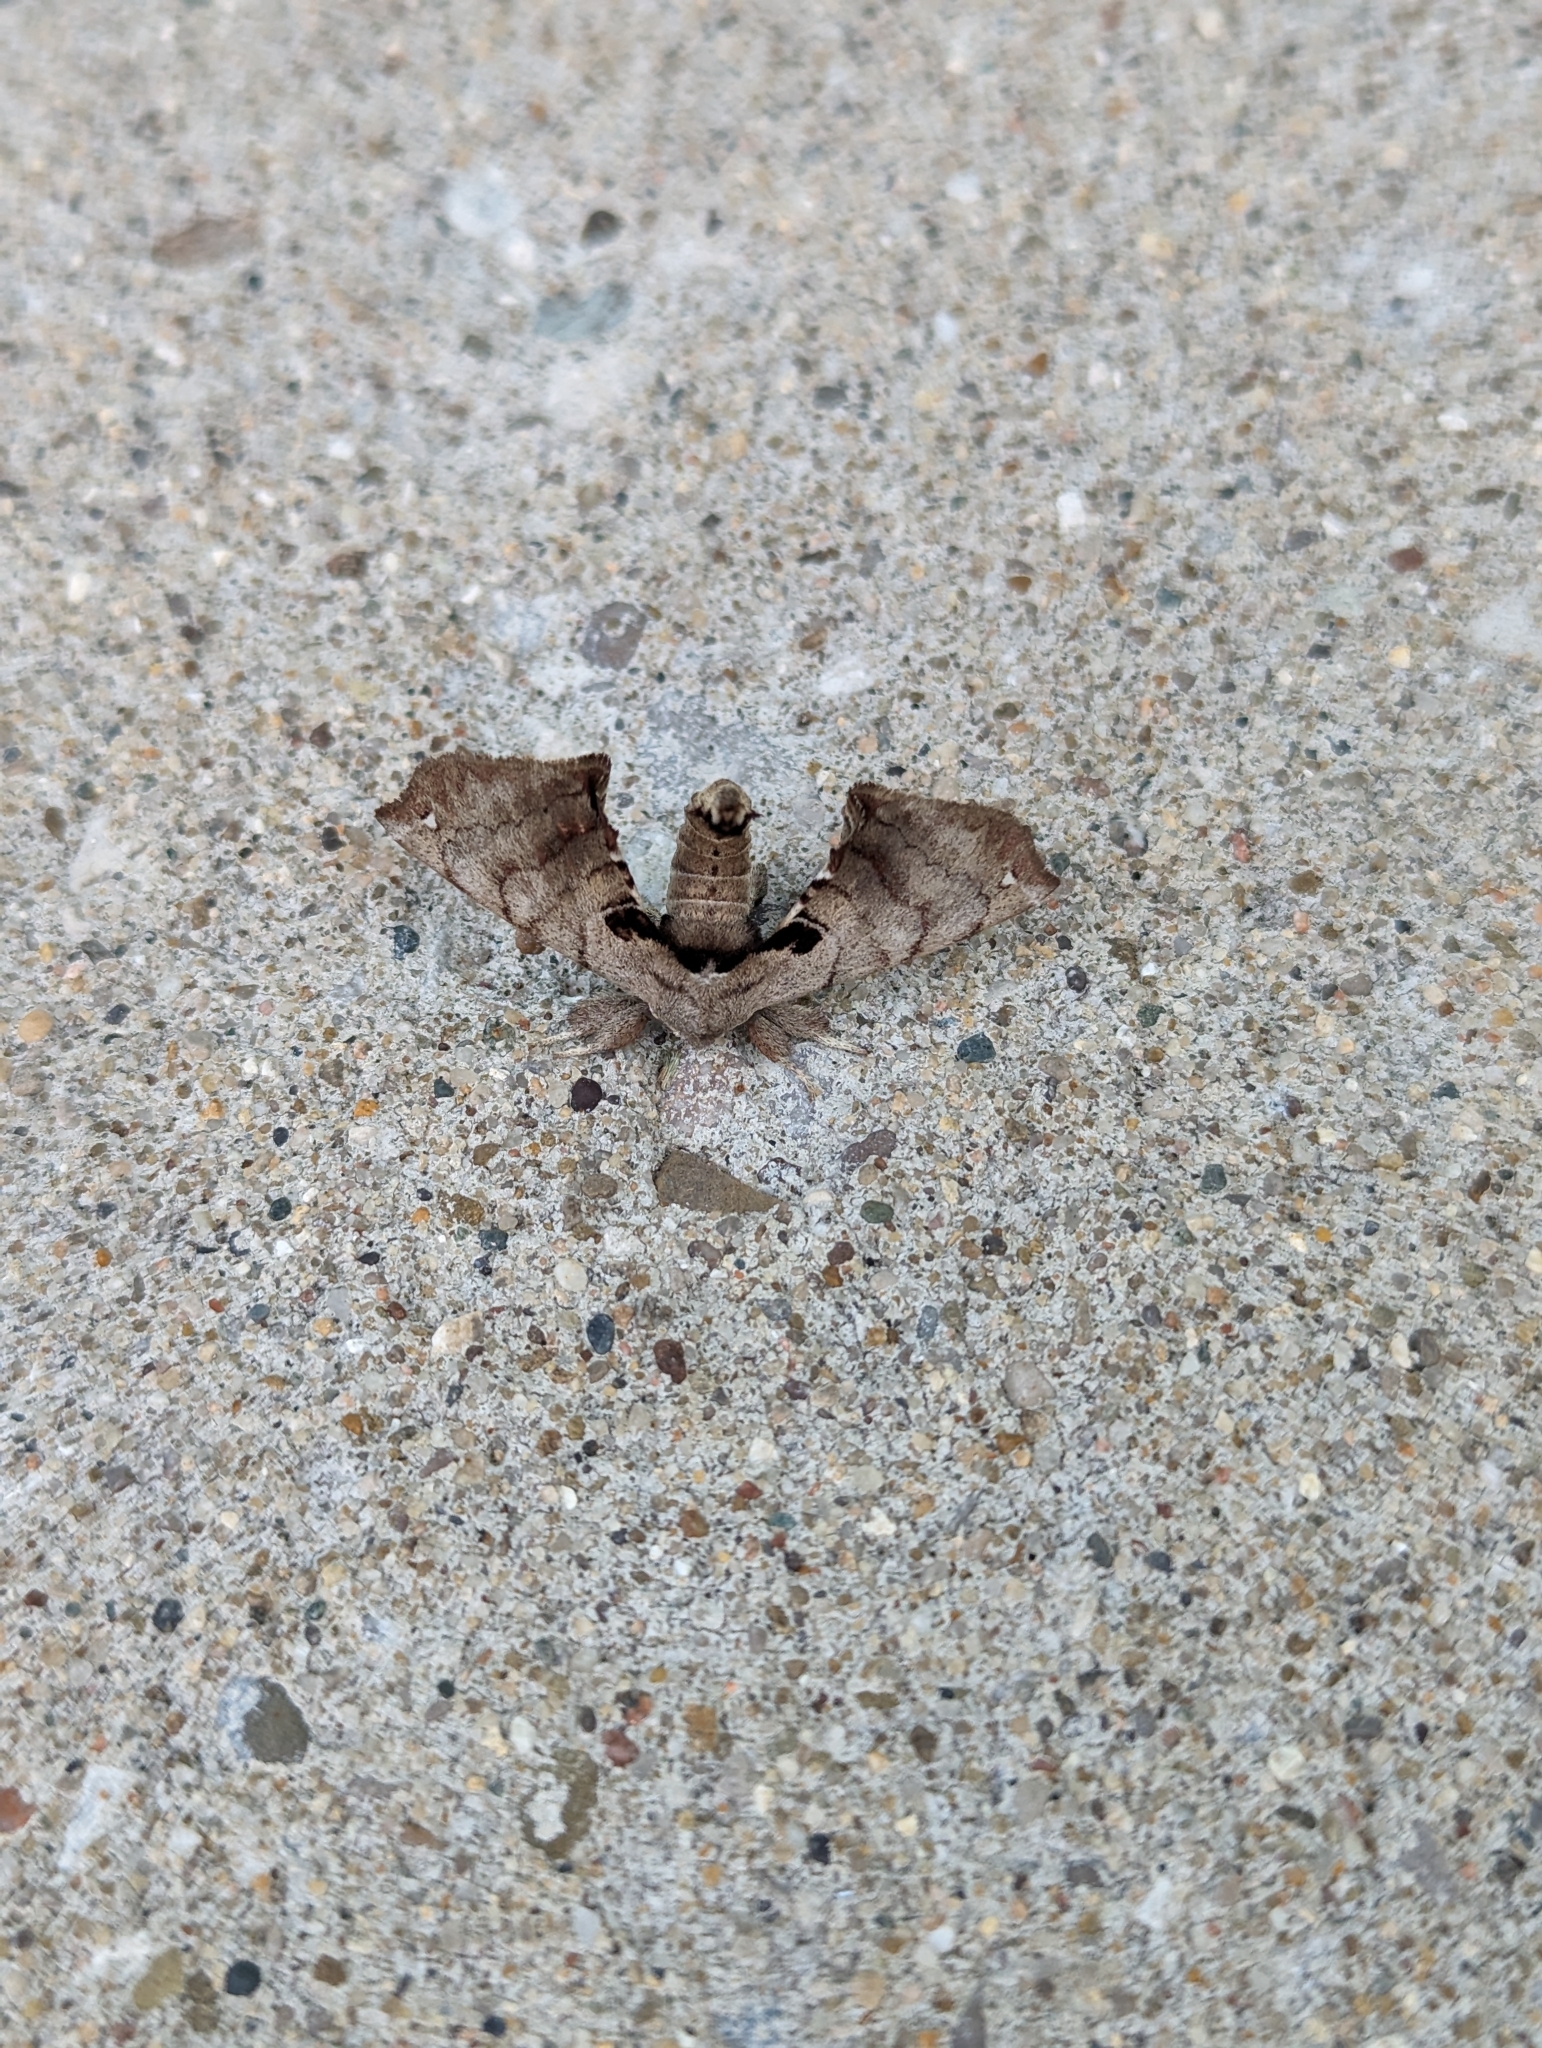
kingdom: Animalia
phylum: Arthropoda
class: Insecta
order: Lepidoptera
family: Apatelodidae
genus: Hygrochroa
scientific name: Hygrochroa Apatelodes torrefacta
